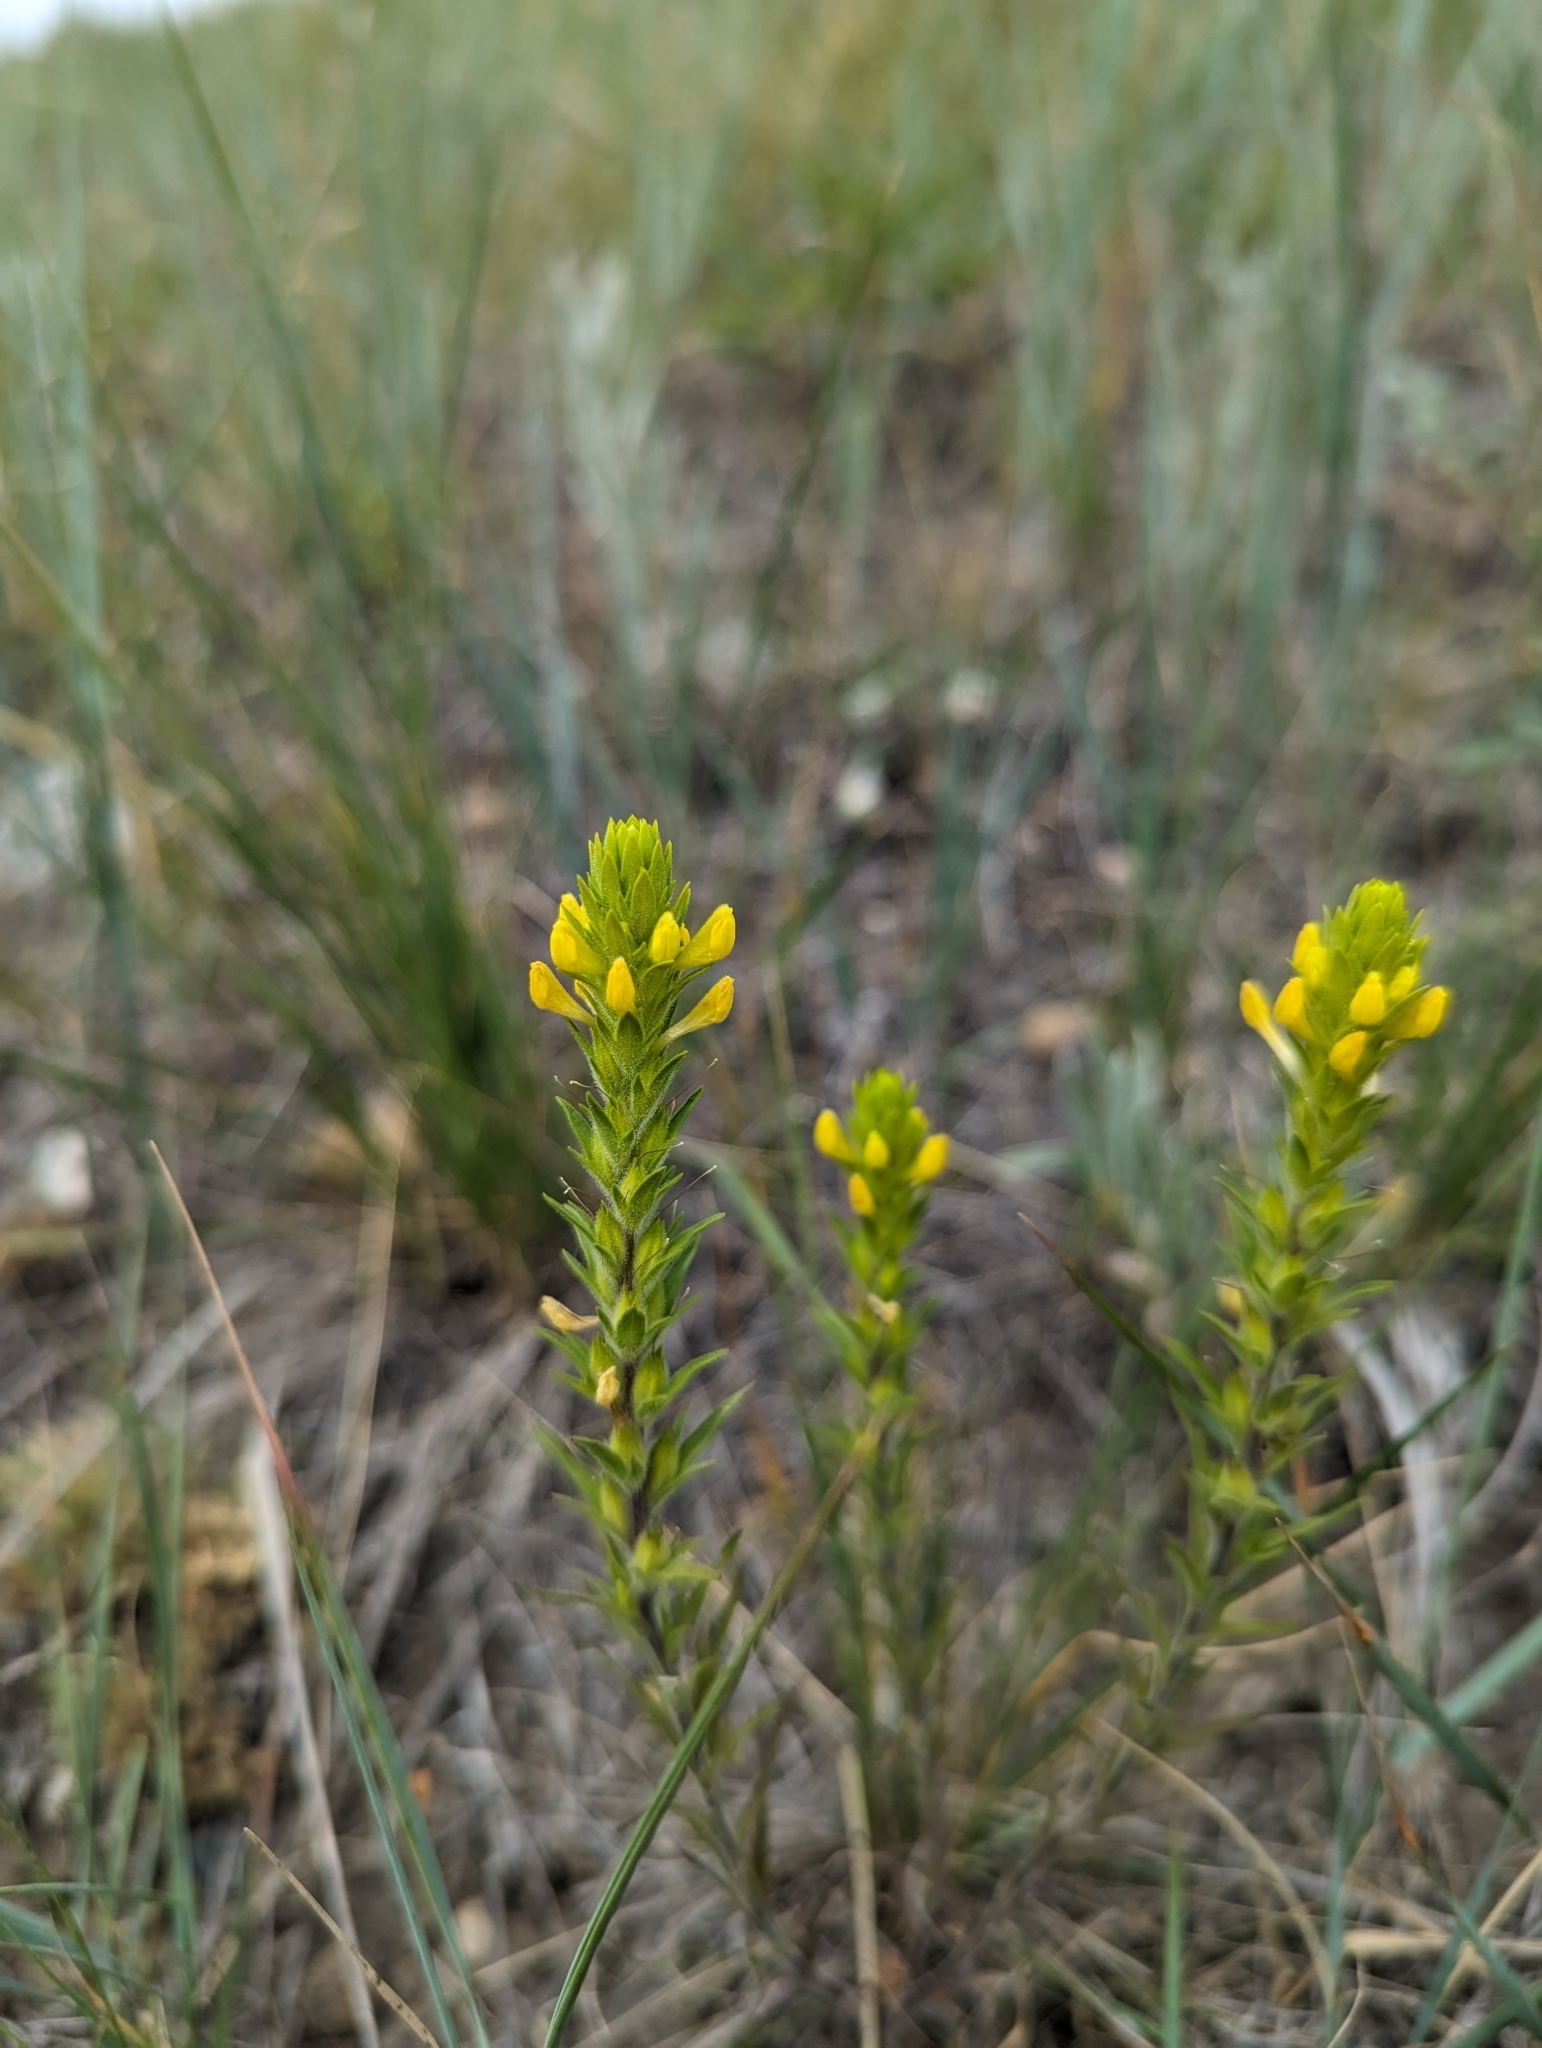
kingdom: Plantae
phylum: Tracheophyta
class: Magnoliopsida
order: Lamiales
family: Orobanchaceae
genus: Orthocarpus
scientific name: Orthocarpus luteus
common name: Golden-tongue owl's-clover
